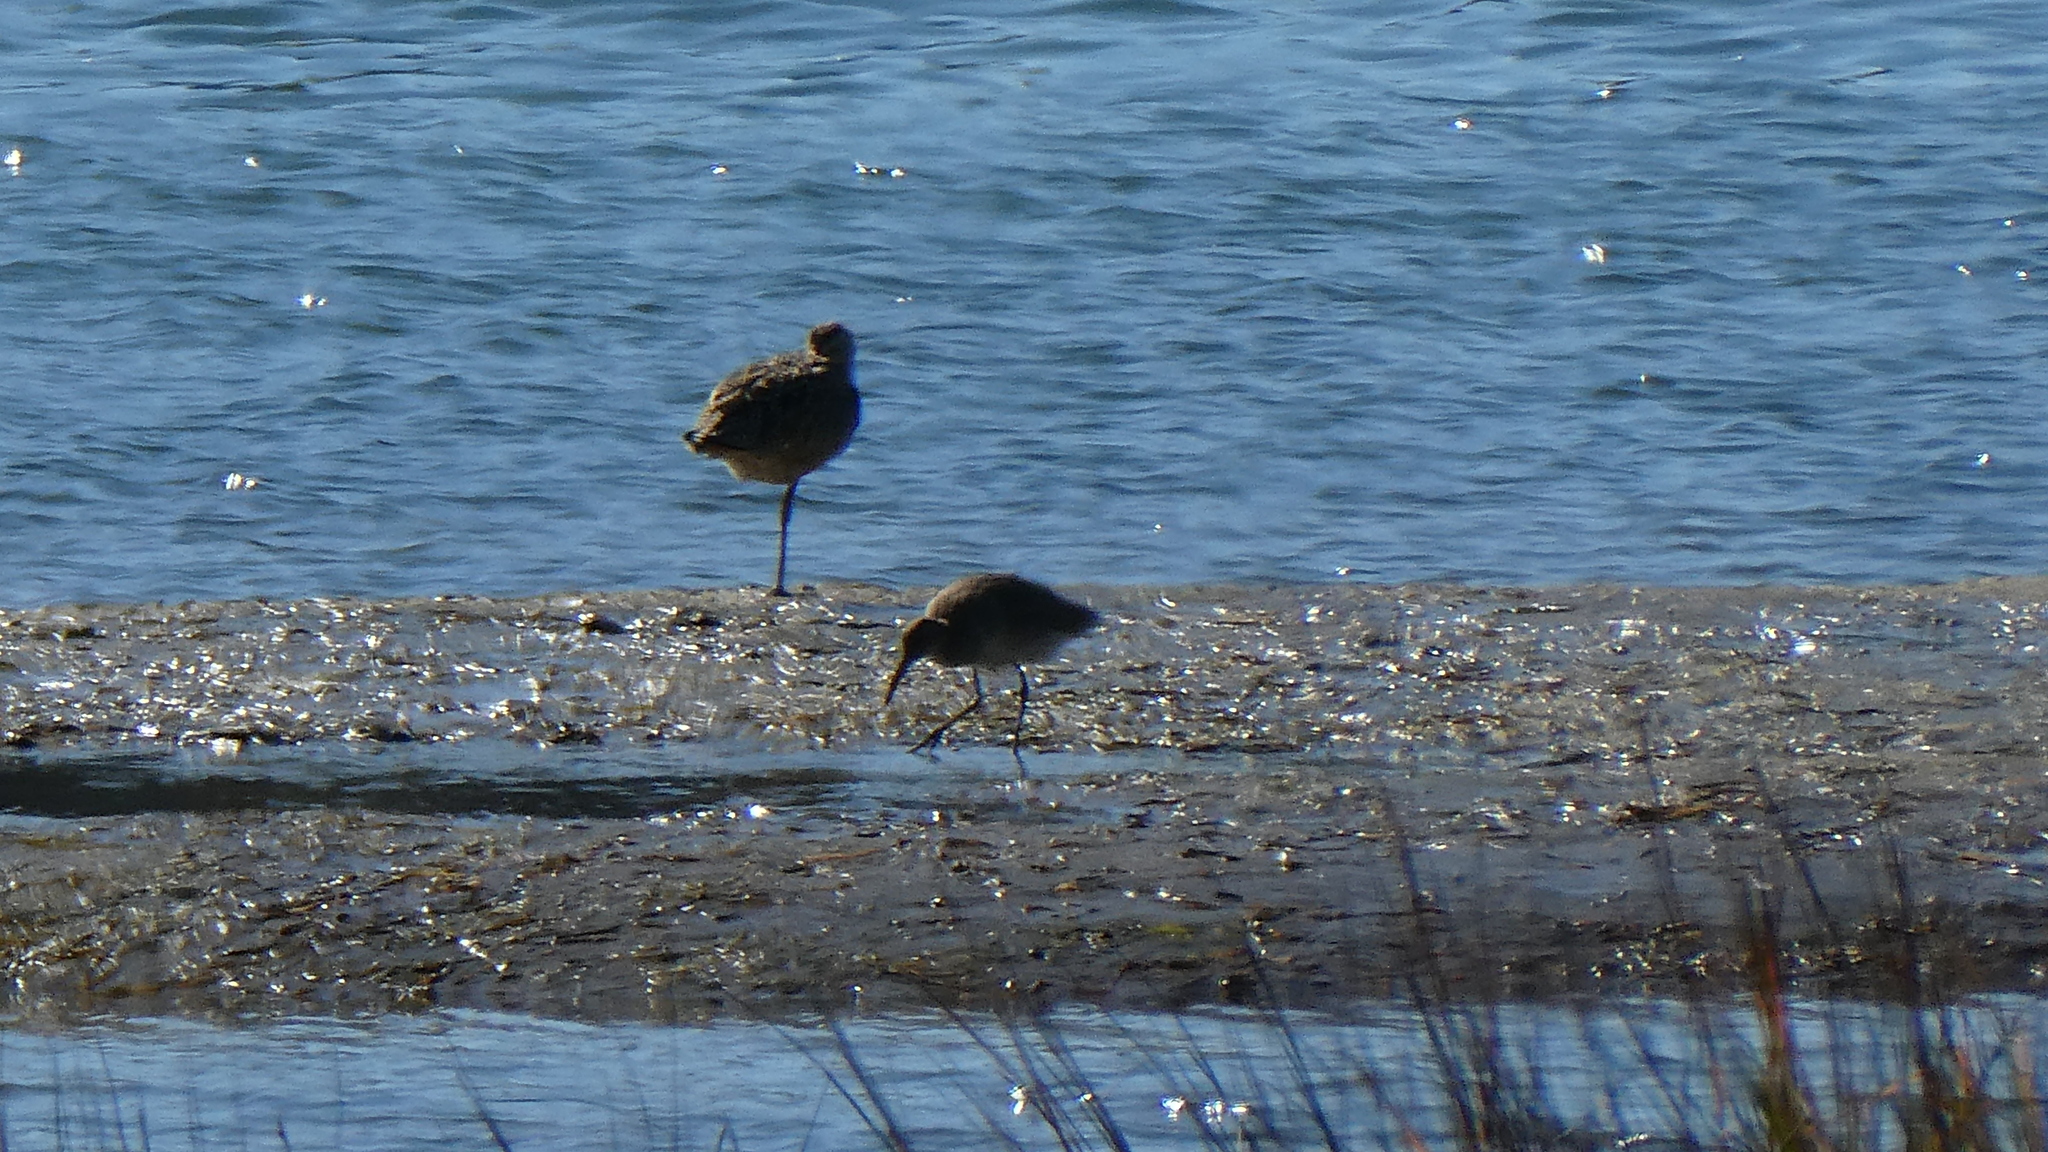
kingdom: Animalia
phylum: Chordata
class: Aves
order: Charadriiformes
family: Scolopacidae
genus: Limosa
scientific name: Limosa fedoa
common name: Marbled godwit
